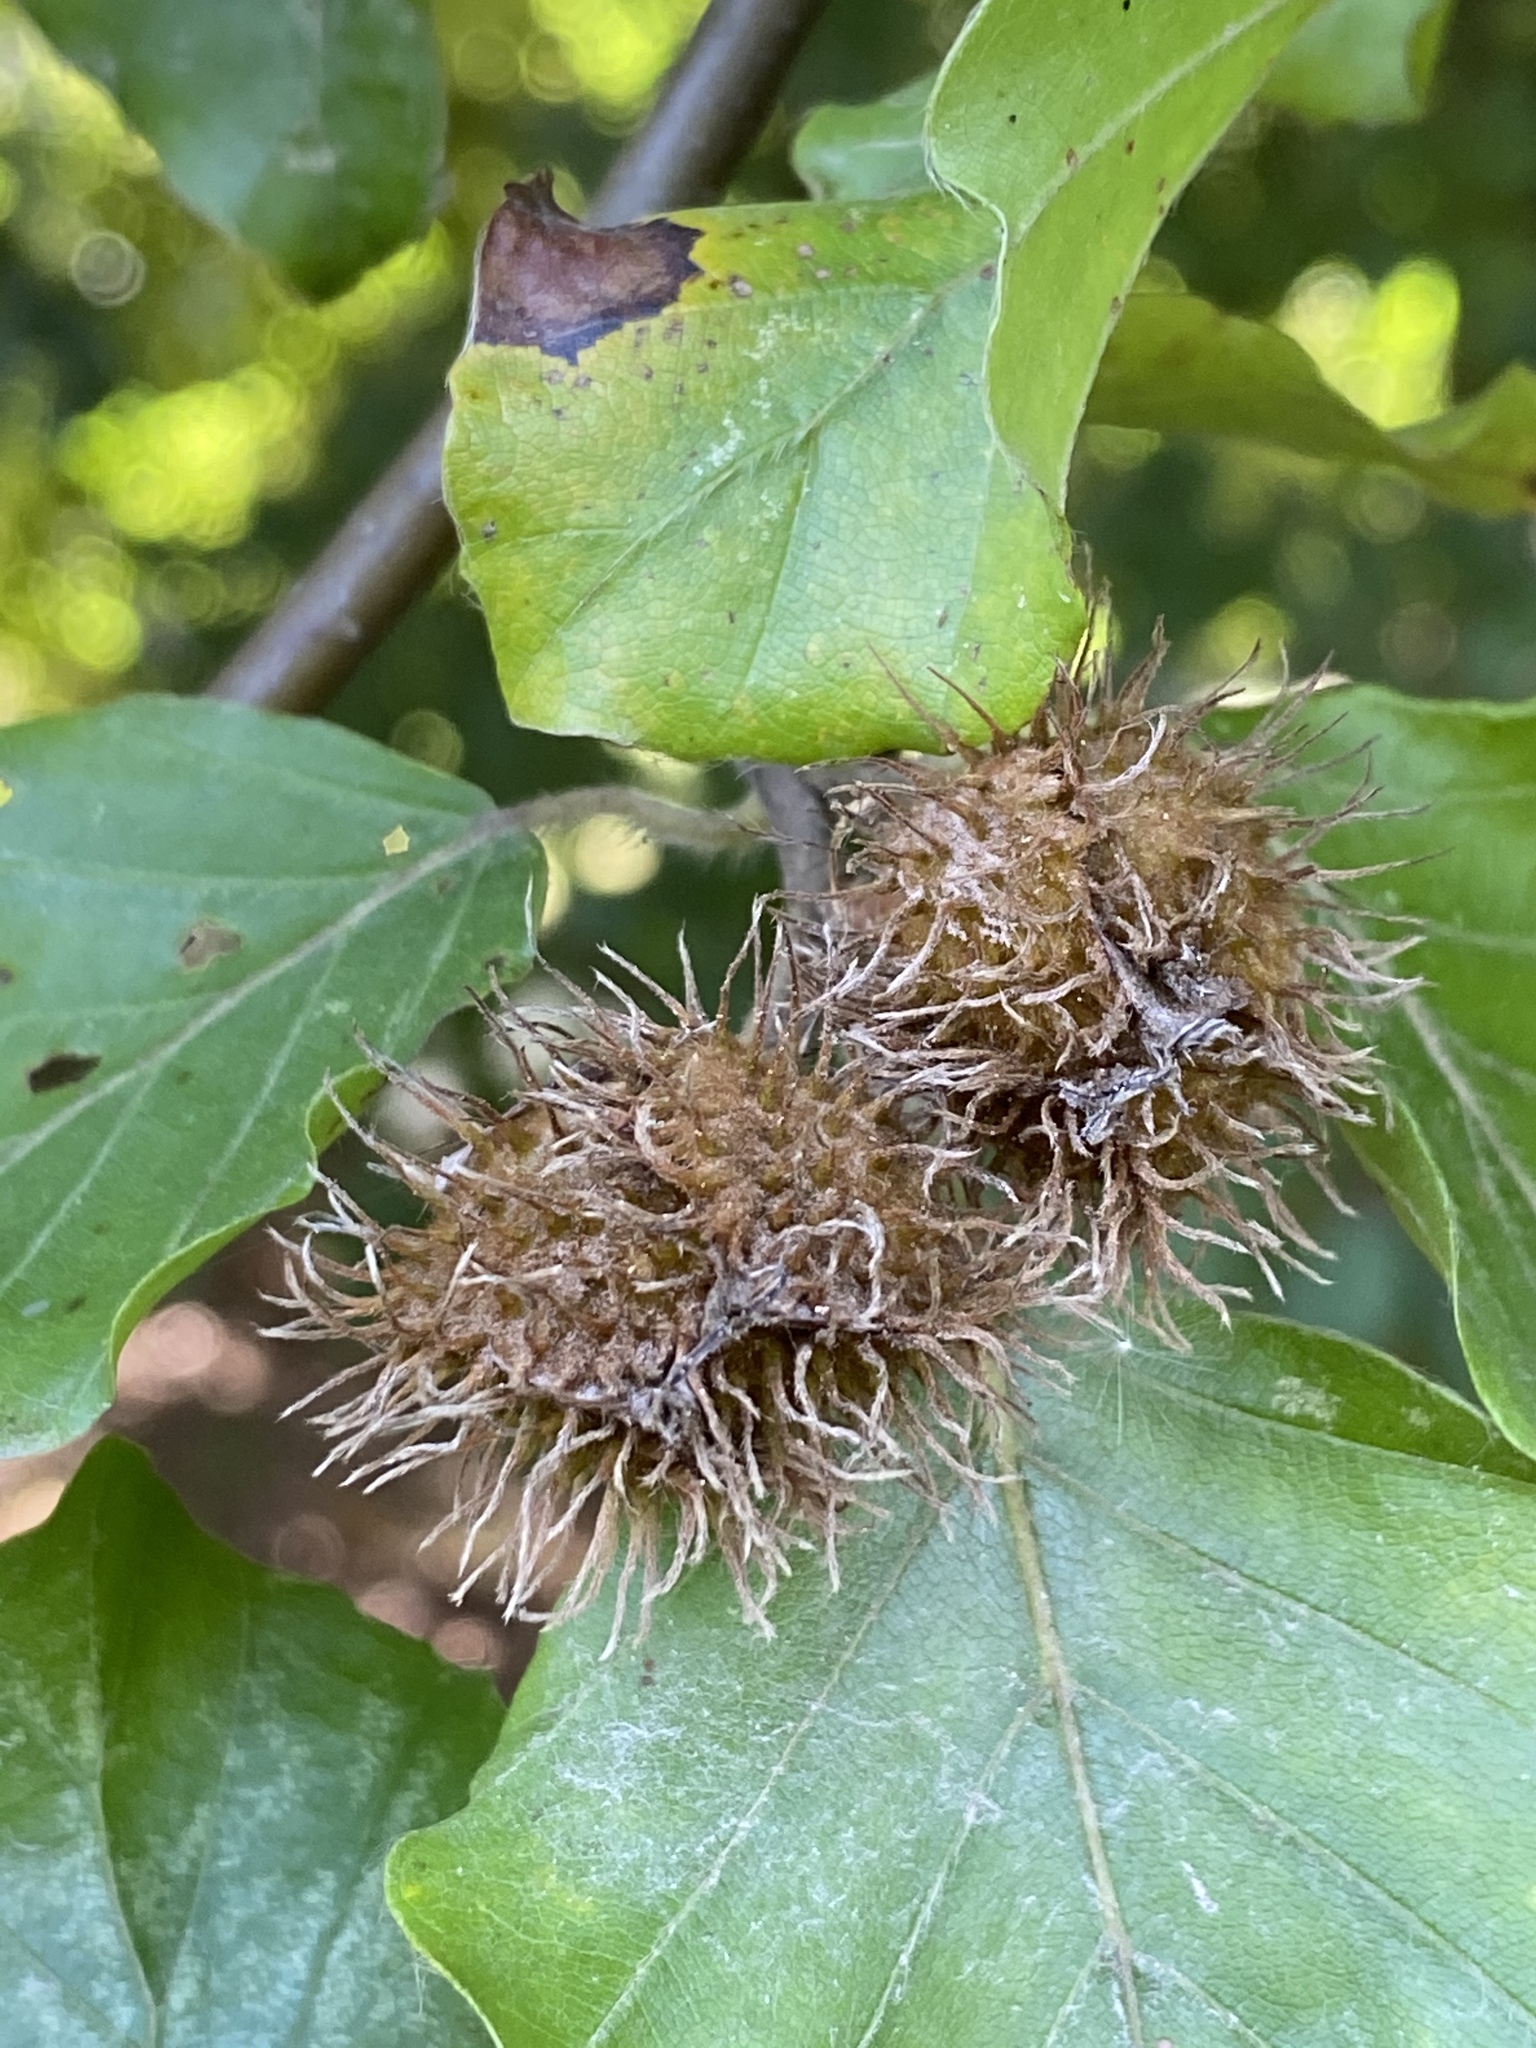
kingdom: Plantae
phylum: Tracheophyta
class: Magnoliopsida
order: Fagales
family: Fagaceae
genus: Fagus
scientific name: Fagus sylvatica
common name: Beech
